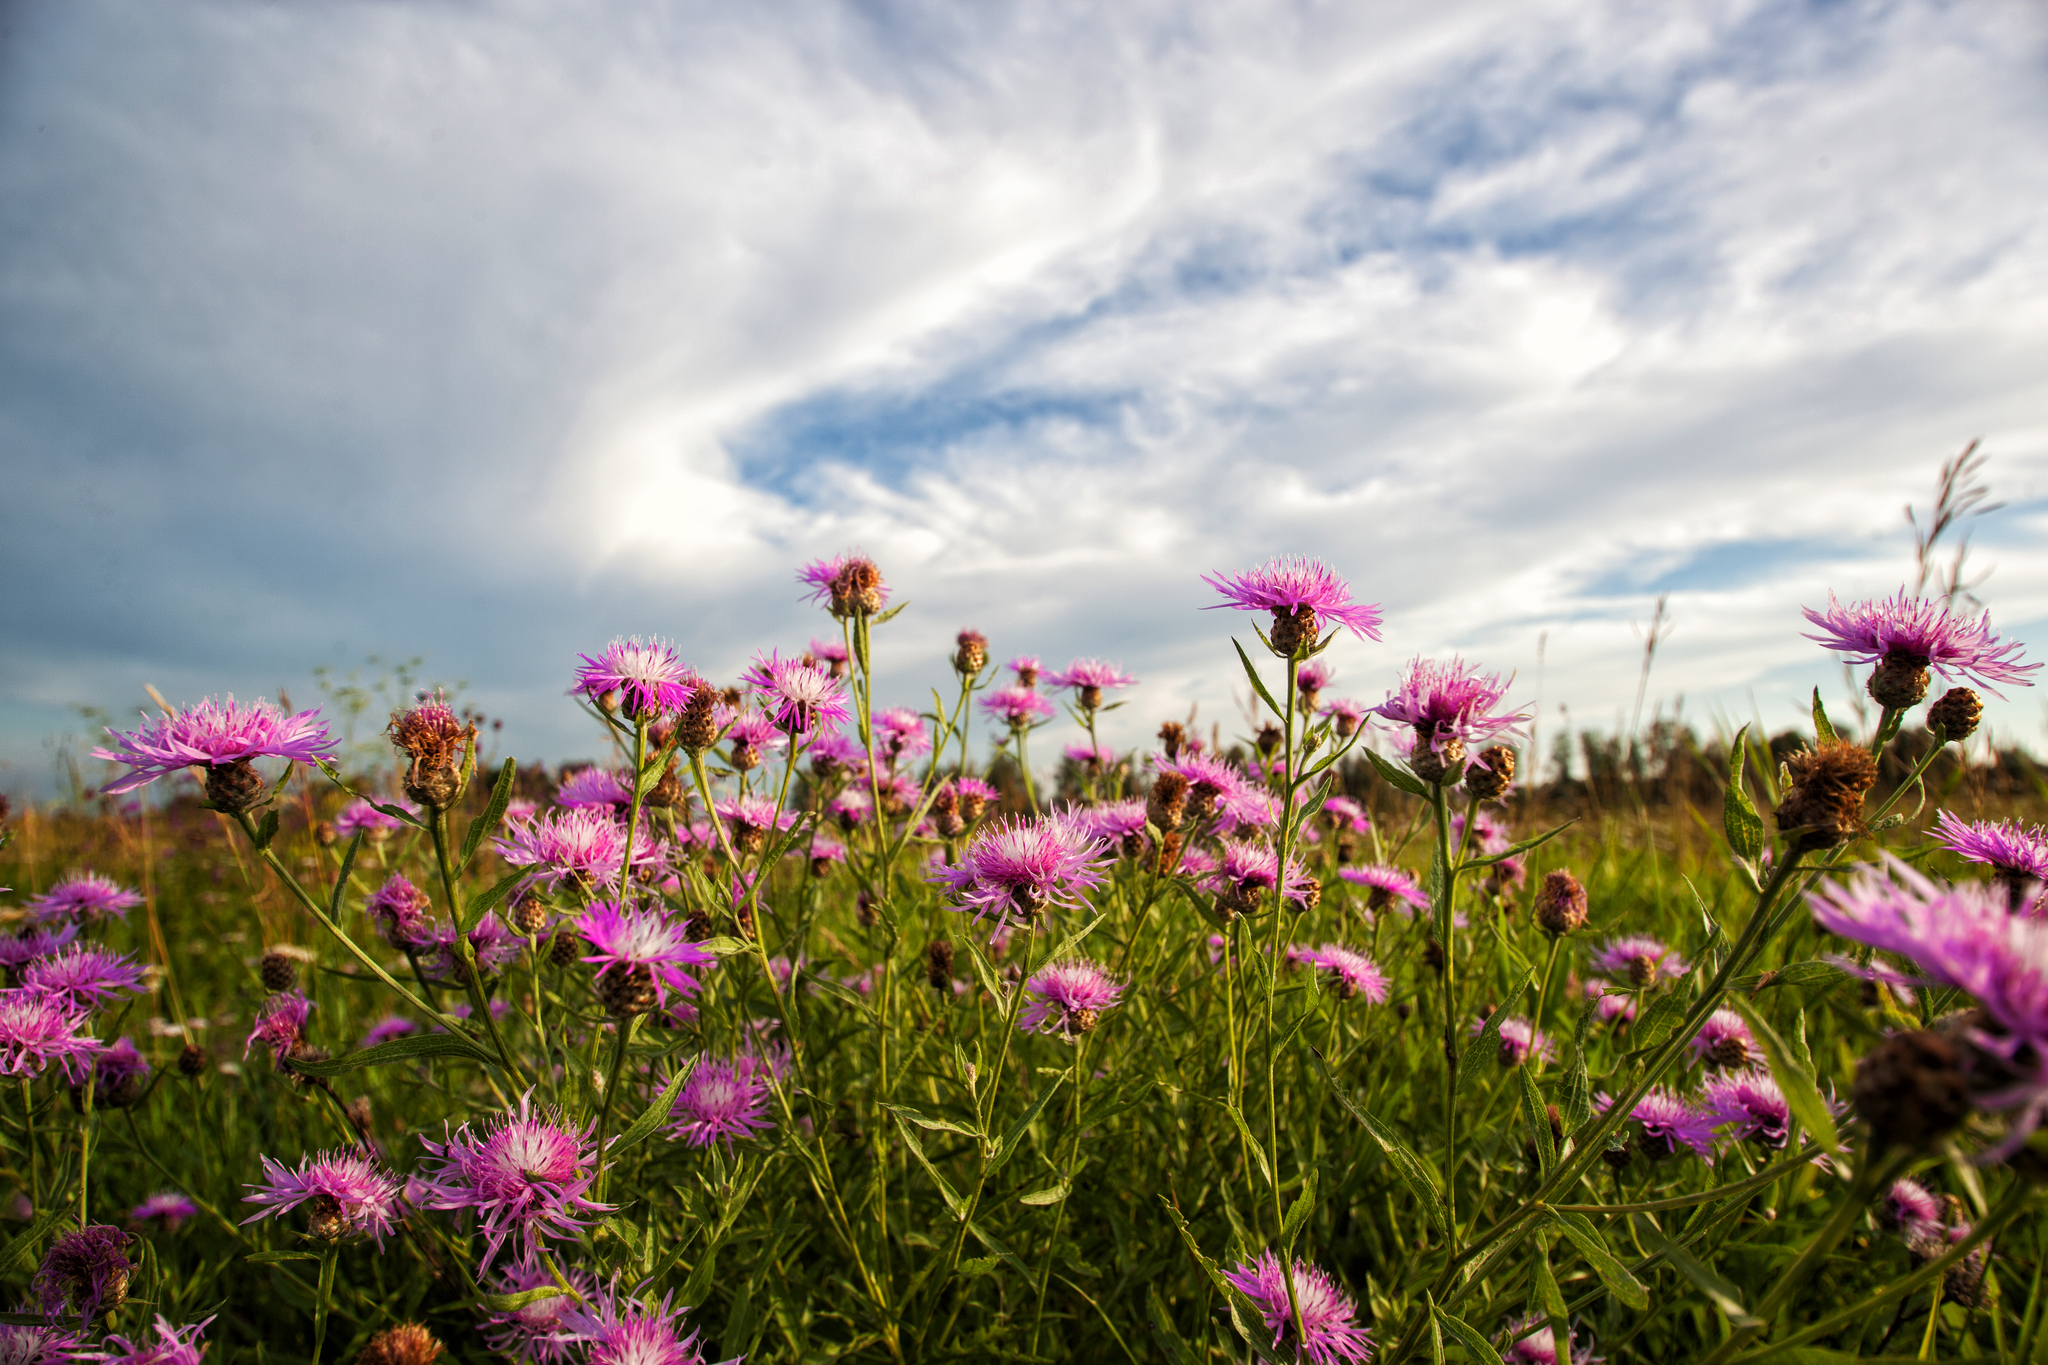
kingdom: Plantae
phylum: Tracheophyta
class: Magnoliopsida
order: Asterales
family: Asteraceae
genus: Centaurea
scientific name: Centaurea jacea
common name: Brown knapweed
